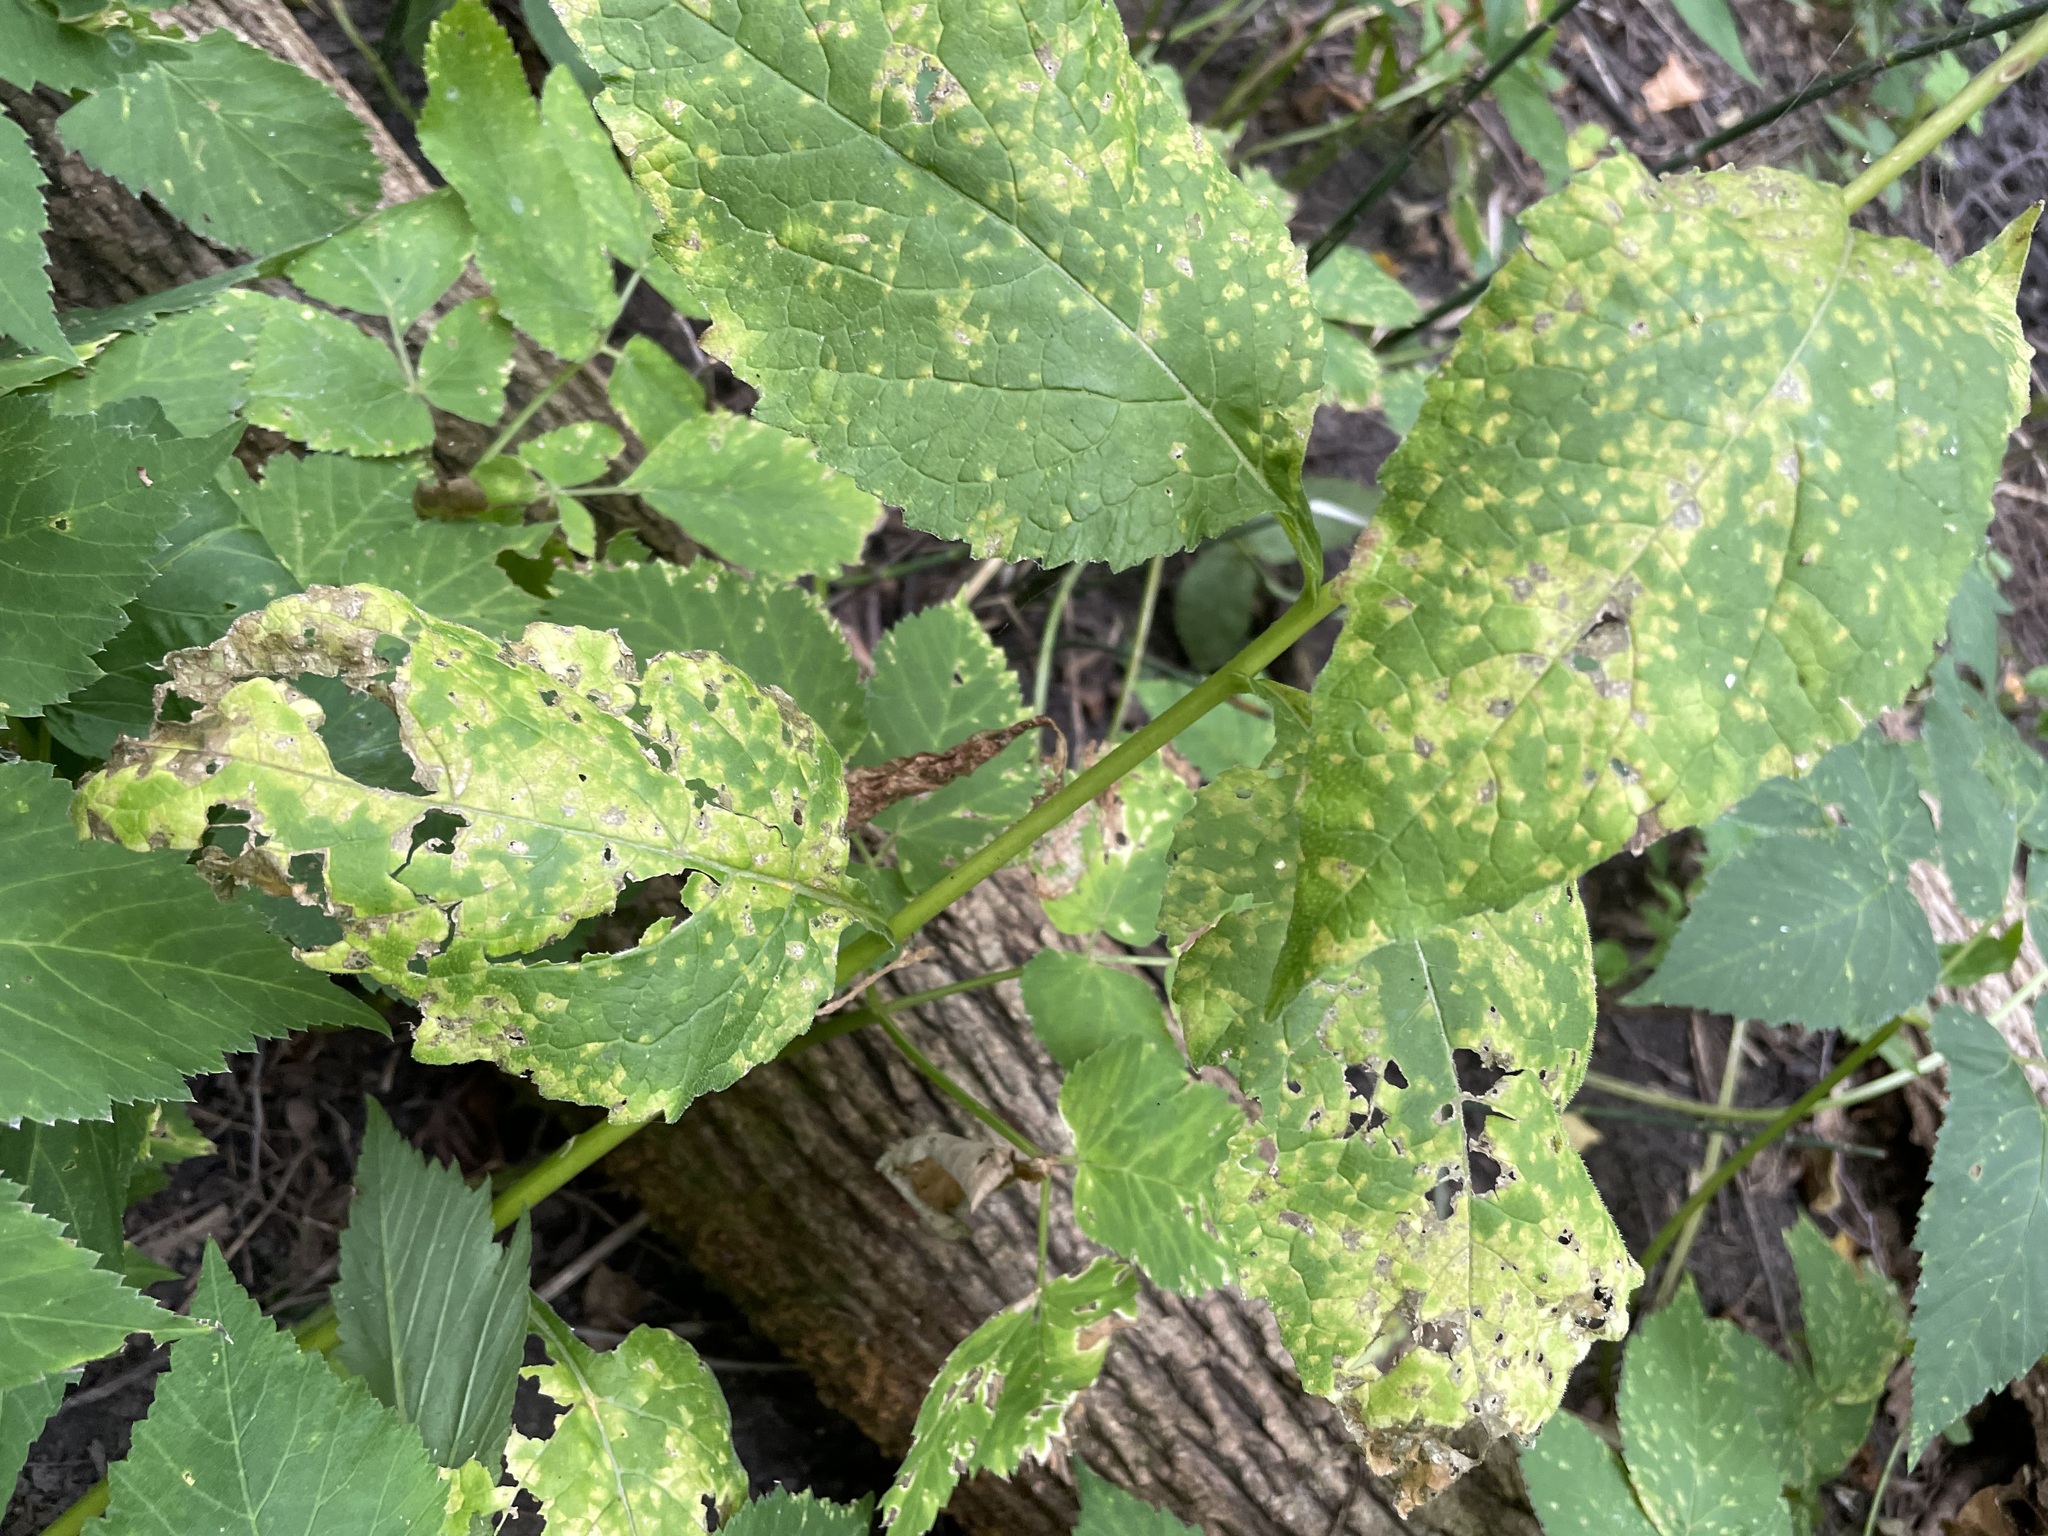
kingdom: Plantae
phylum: Tracheophyta
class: Magnoliopsida
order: Asterales
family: Campanulaceae
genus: Campanula
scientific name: Campanula latifolia
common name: Giant bellflower
